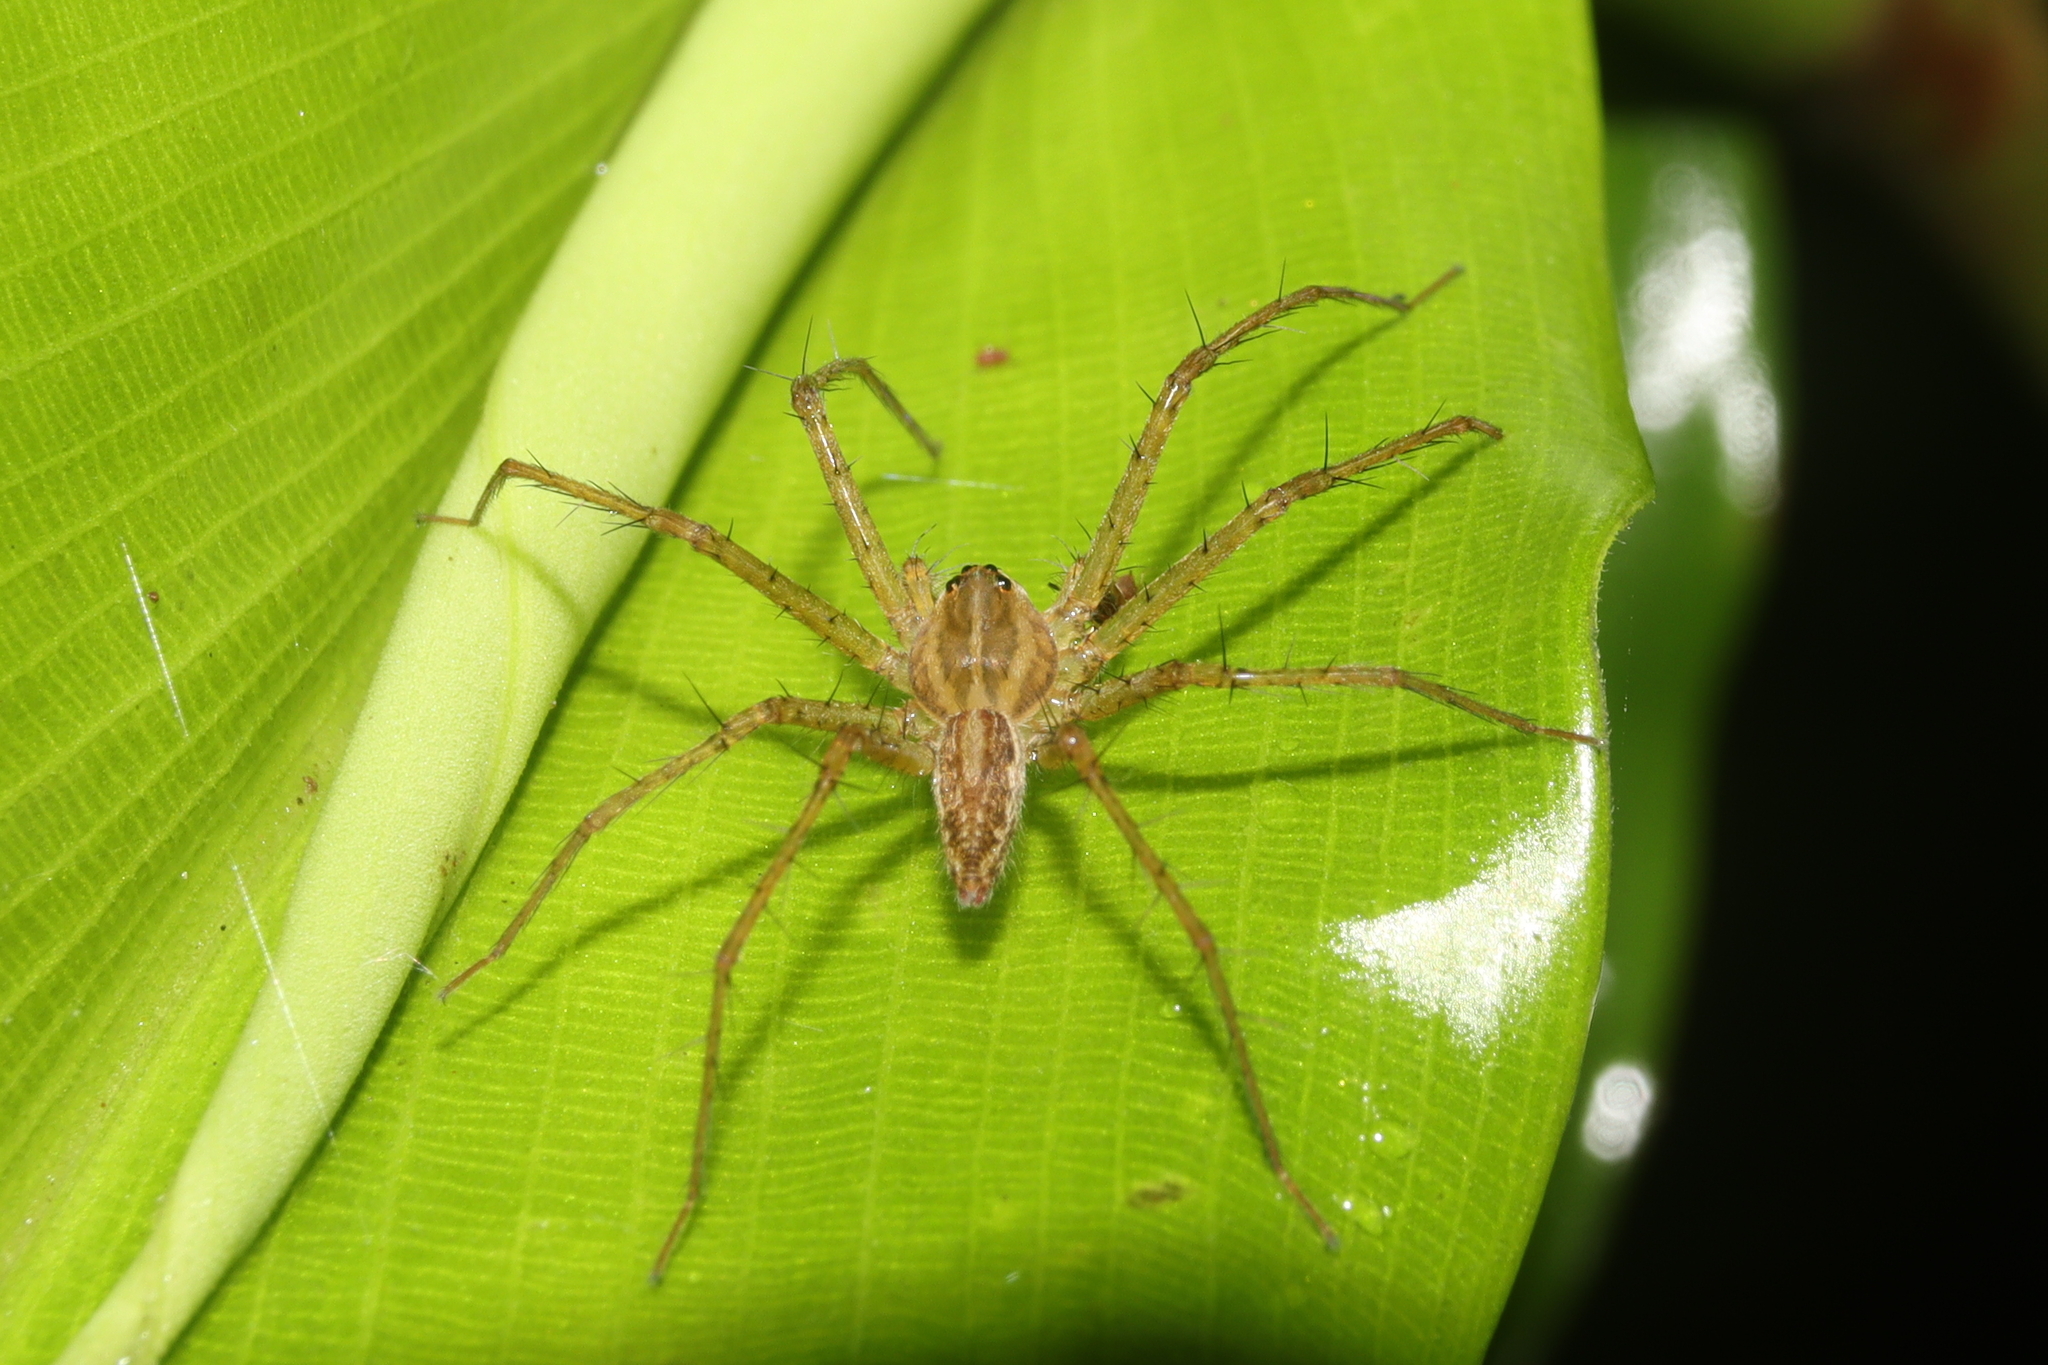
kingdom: Animalia
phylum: Arthropoda
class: Arachnida
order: Araneae
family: Pisauridae
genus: Thaumasia
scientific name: Thaumasia argenteonotata
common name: Nursery web spiders
